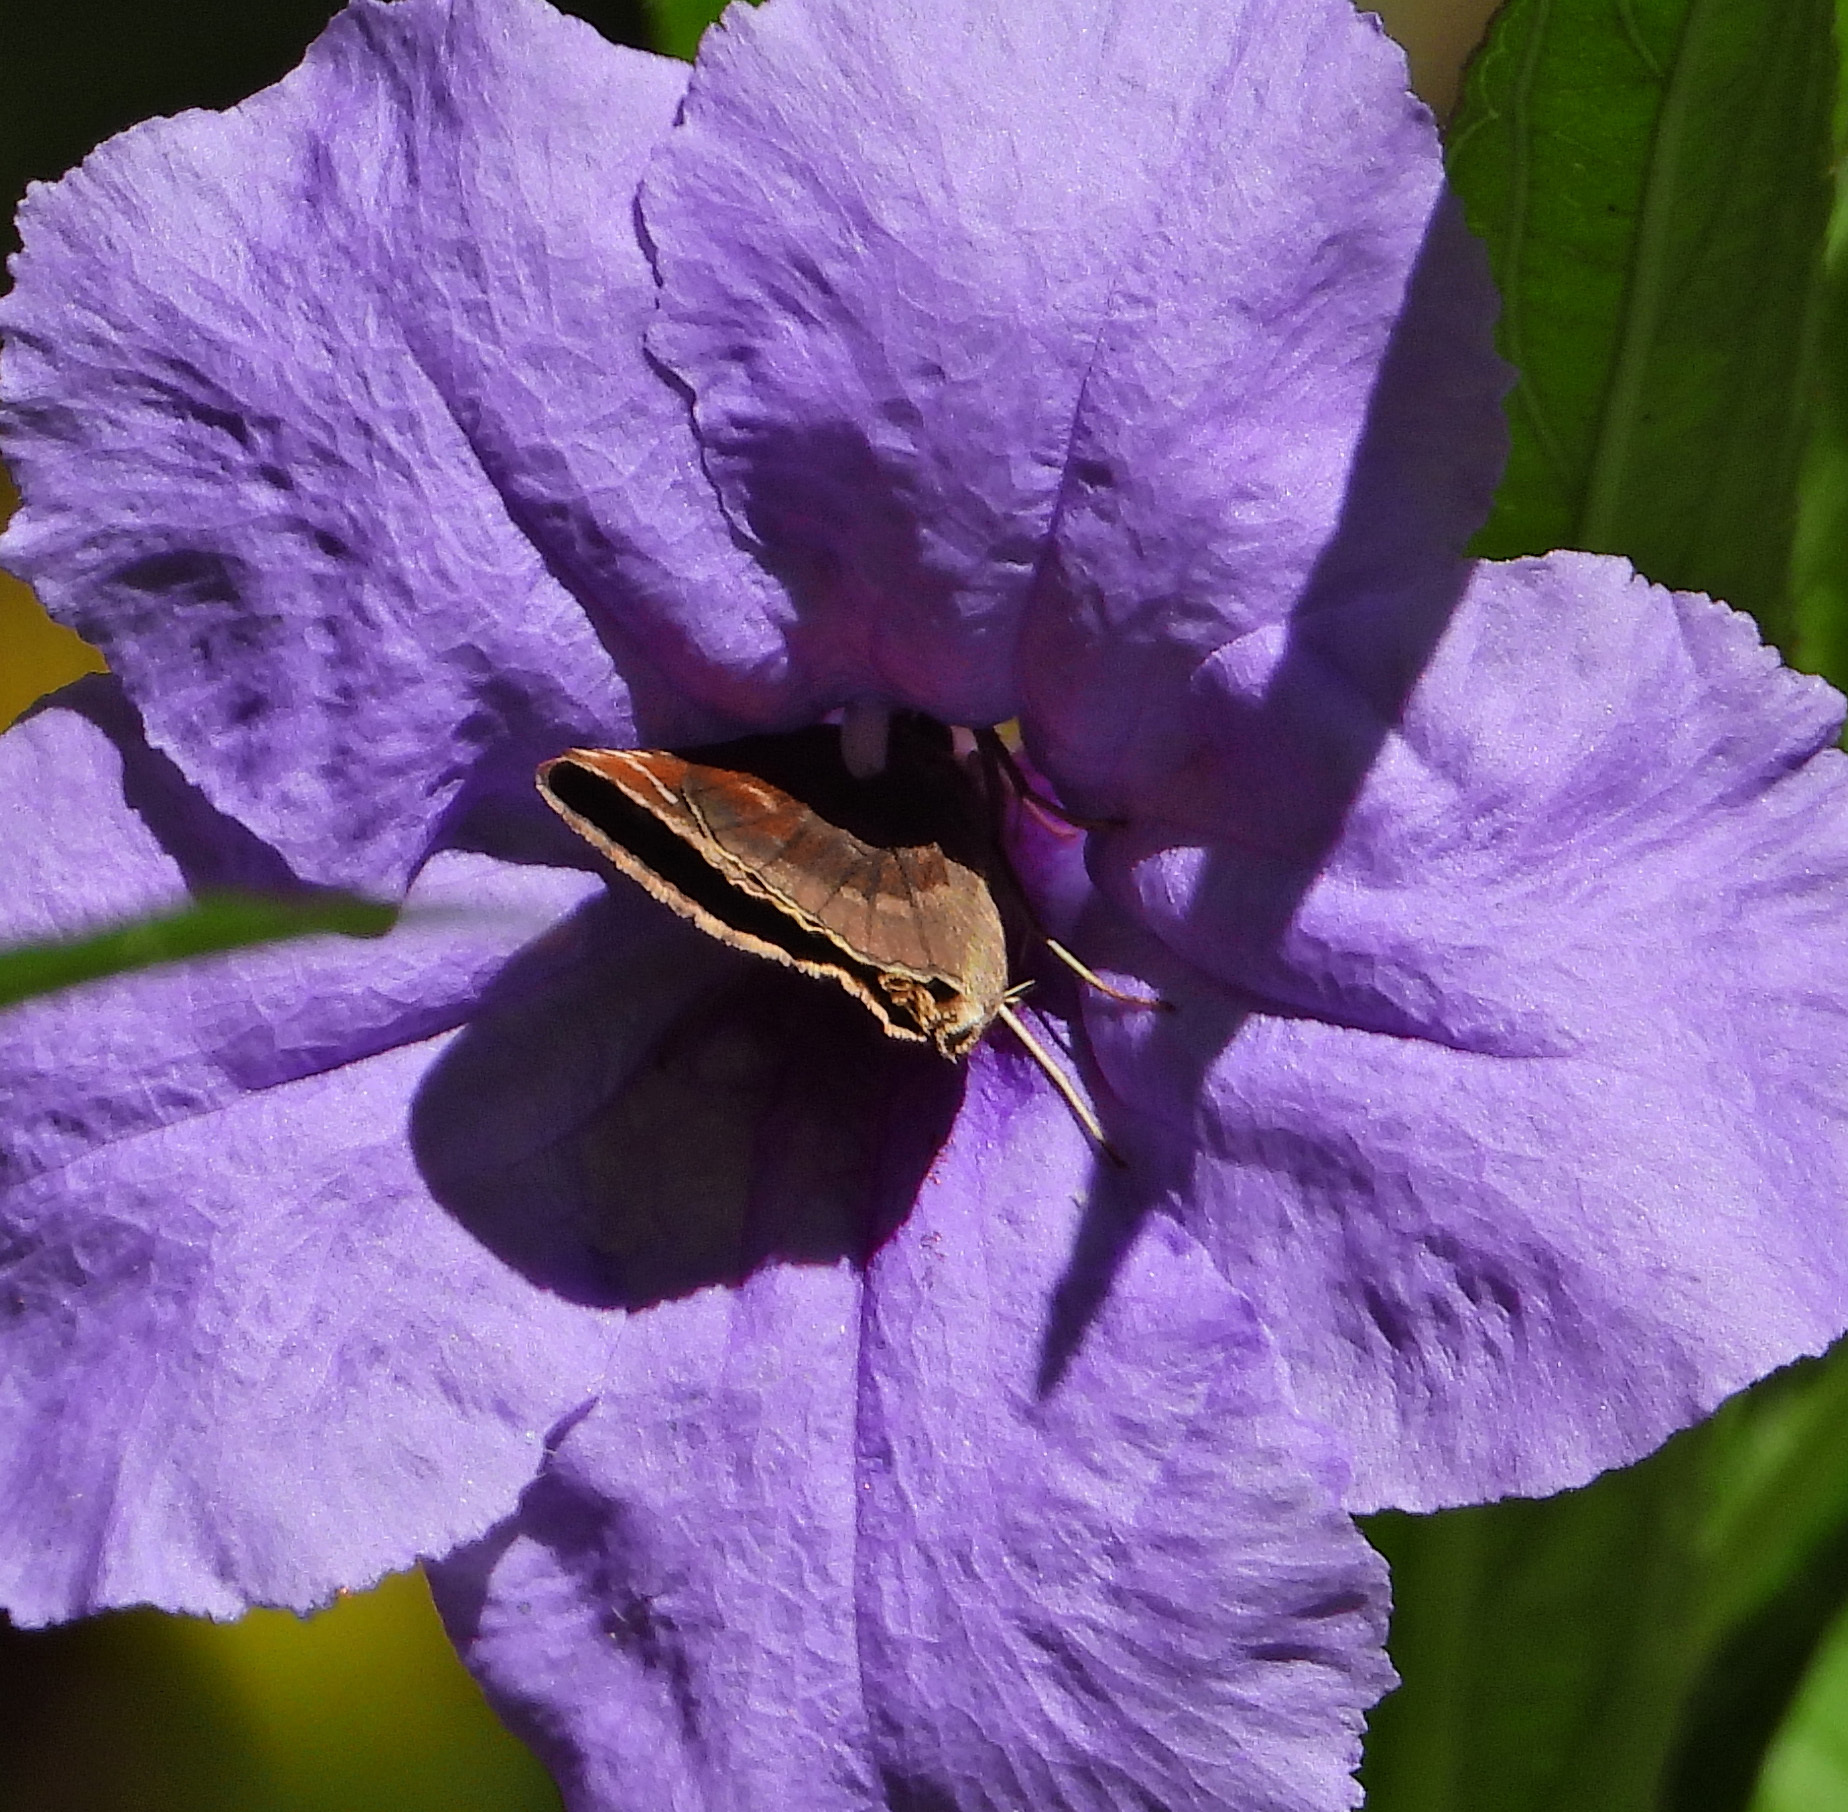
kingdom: Animalia
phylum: Arthropoda
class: Insecta
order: Lepidoptera
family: Hesperiidae
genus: Lerema
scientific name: Lerema accius
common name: Clouded skipper
